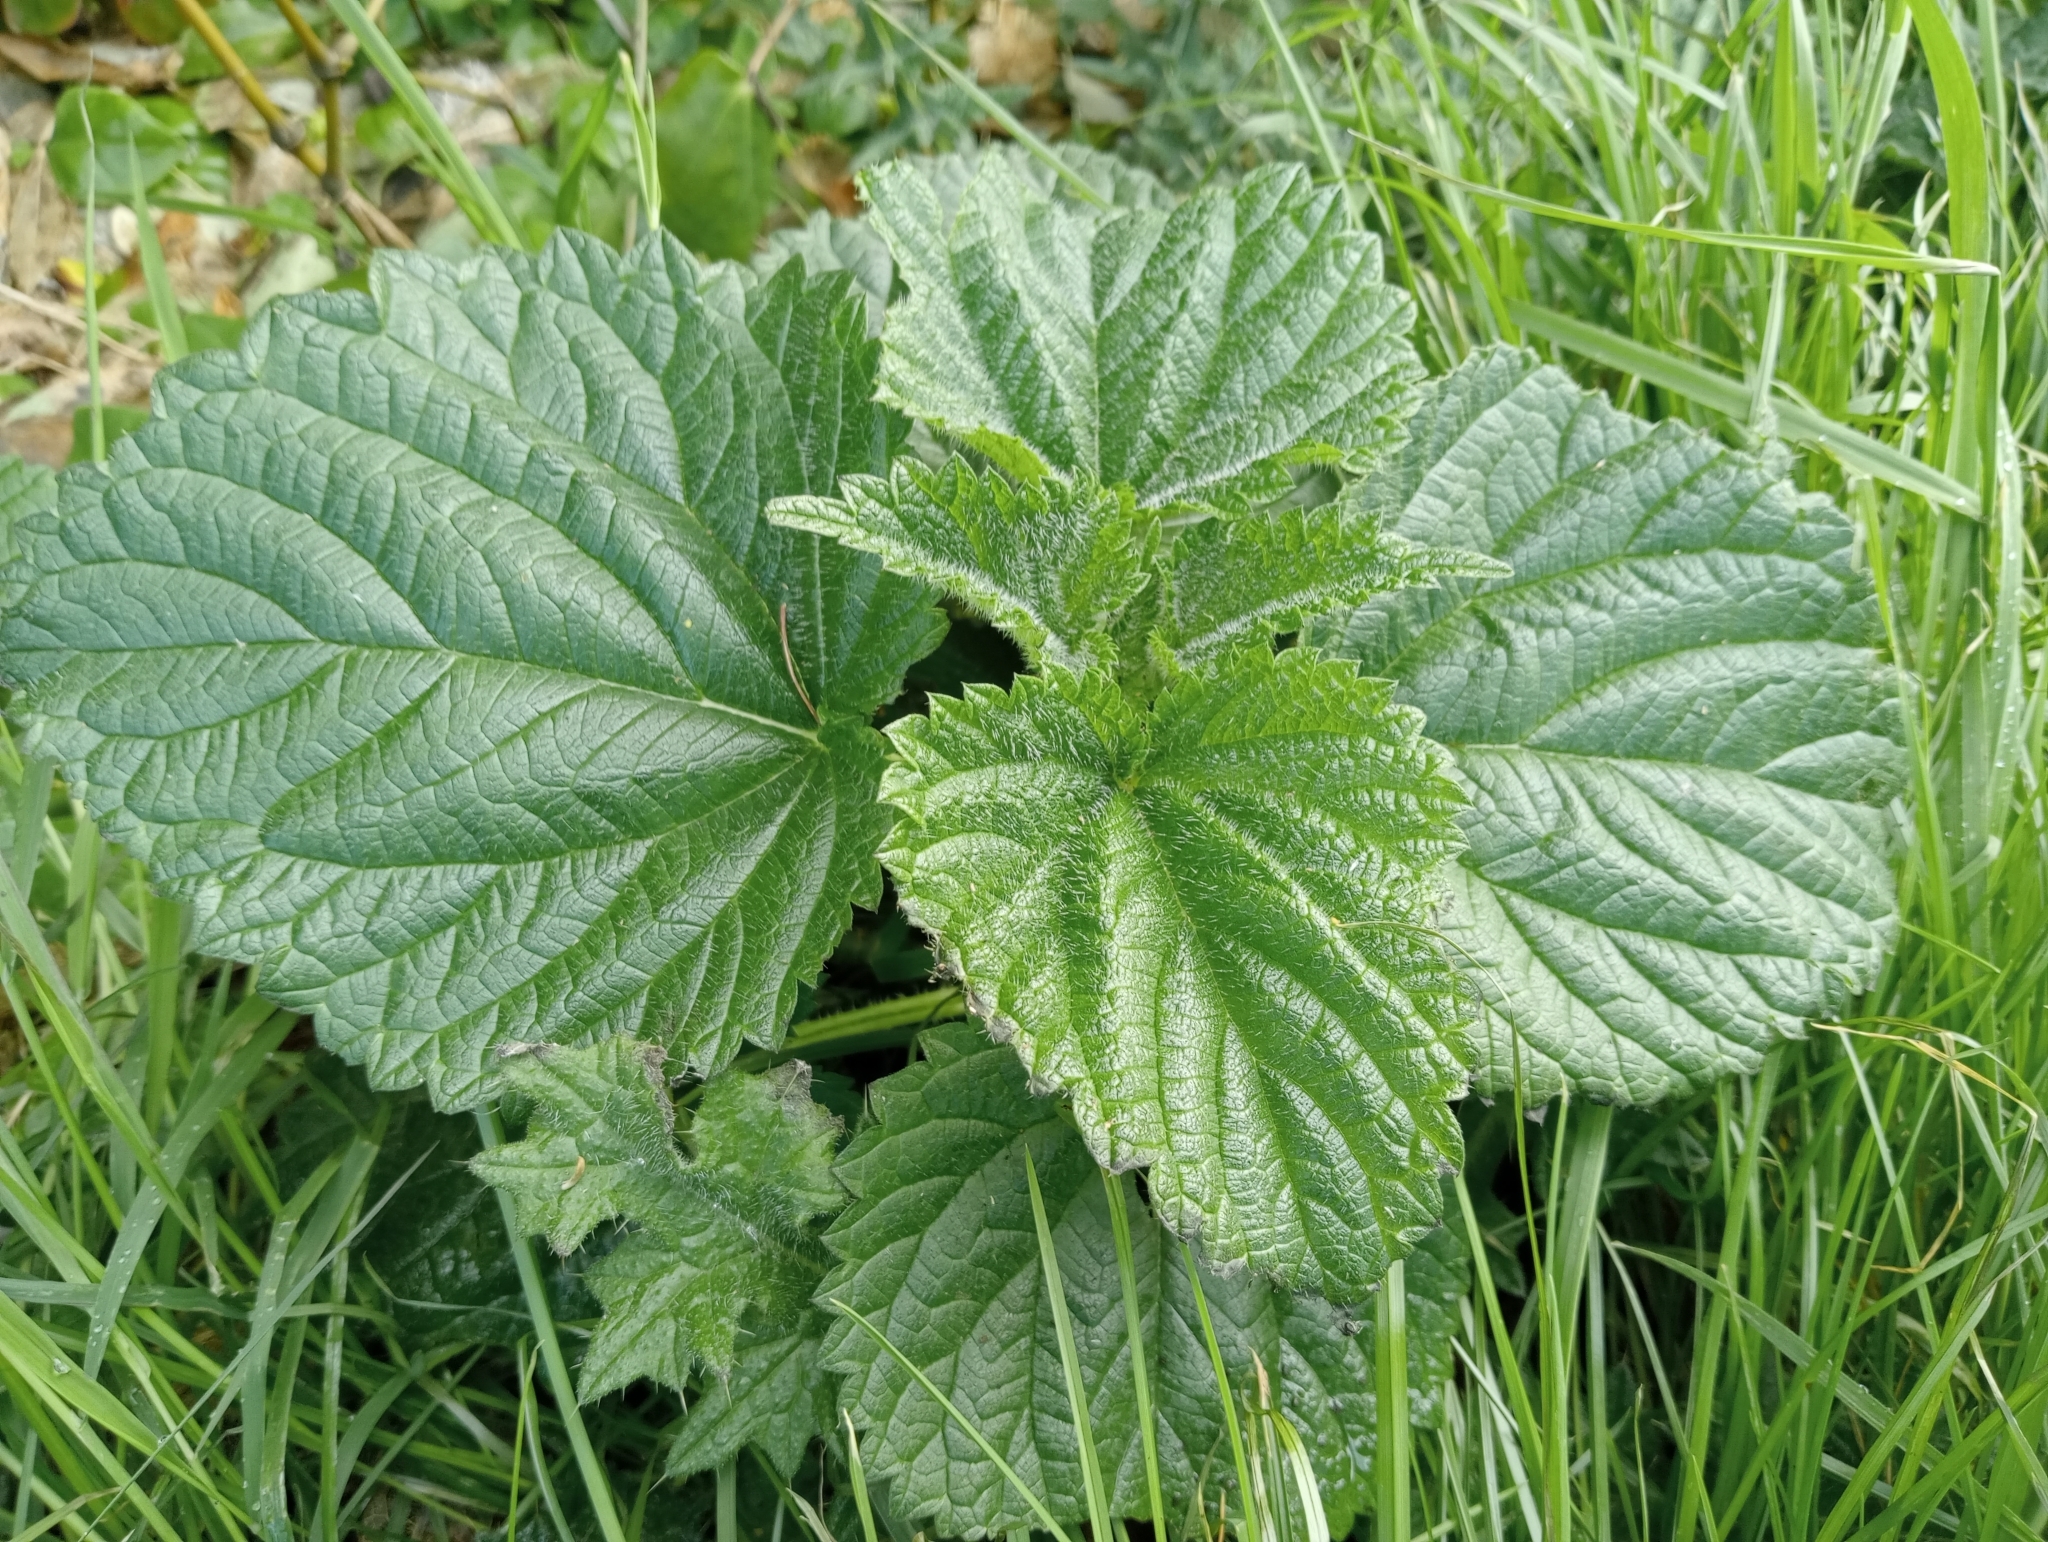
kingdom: Plantae
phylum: Tracheophyta
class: Magnoliopsida
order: Rosales
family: Urticaceae
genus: Urtica
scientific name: Urtica australis
